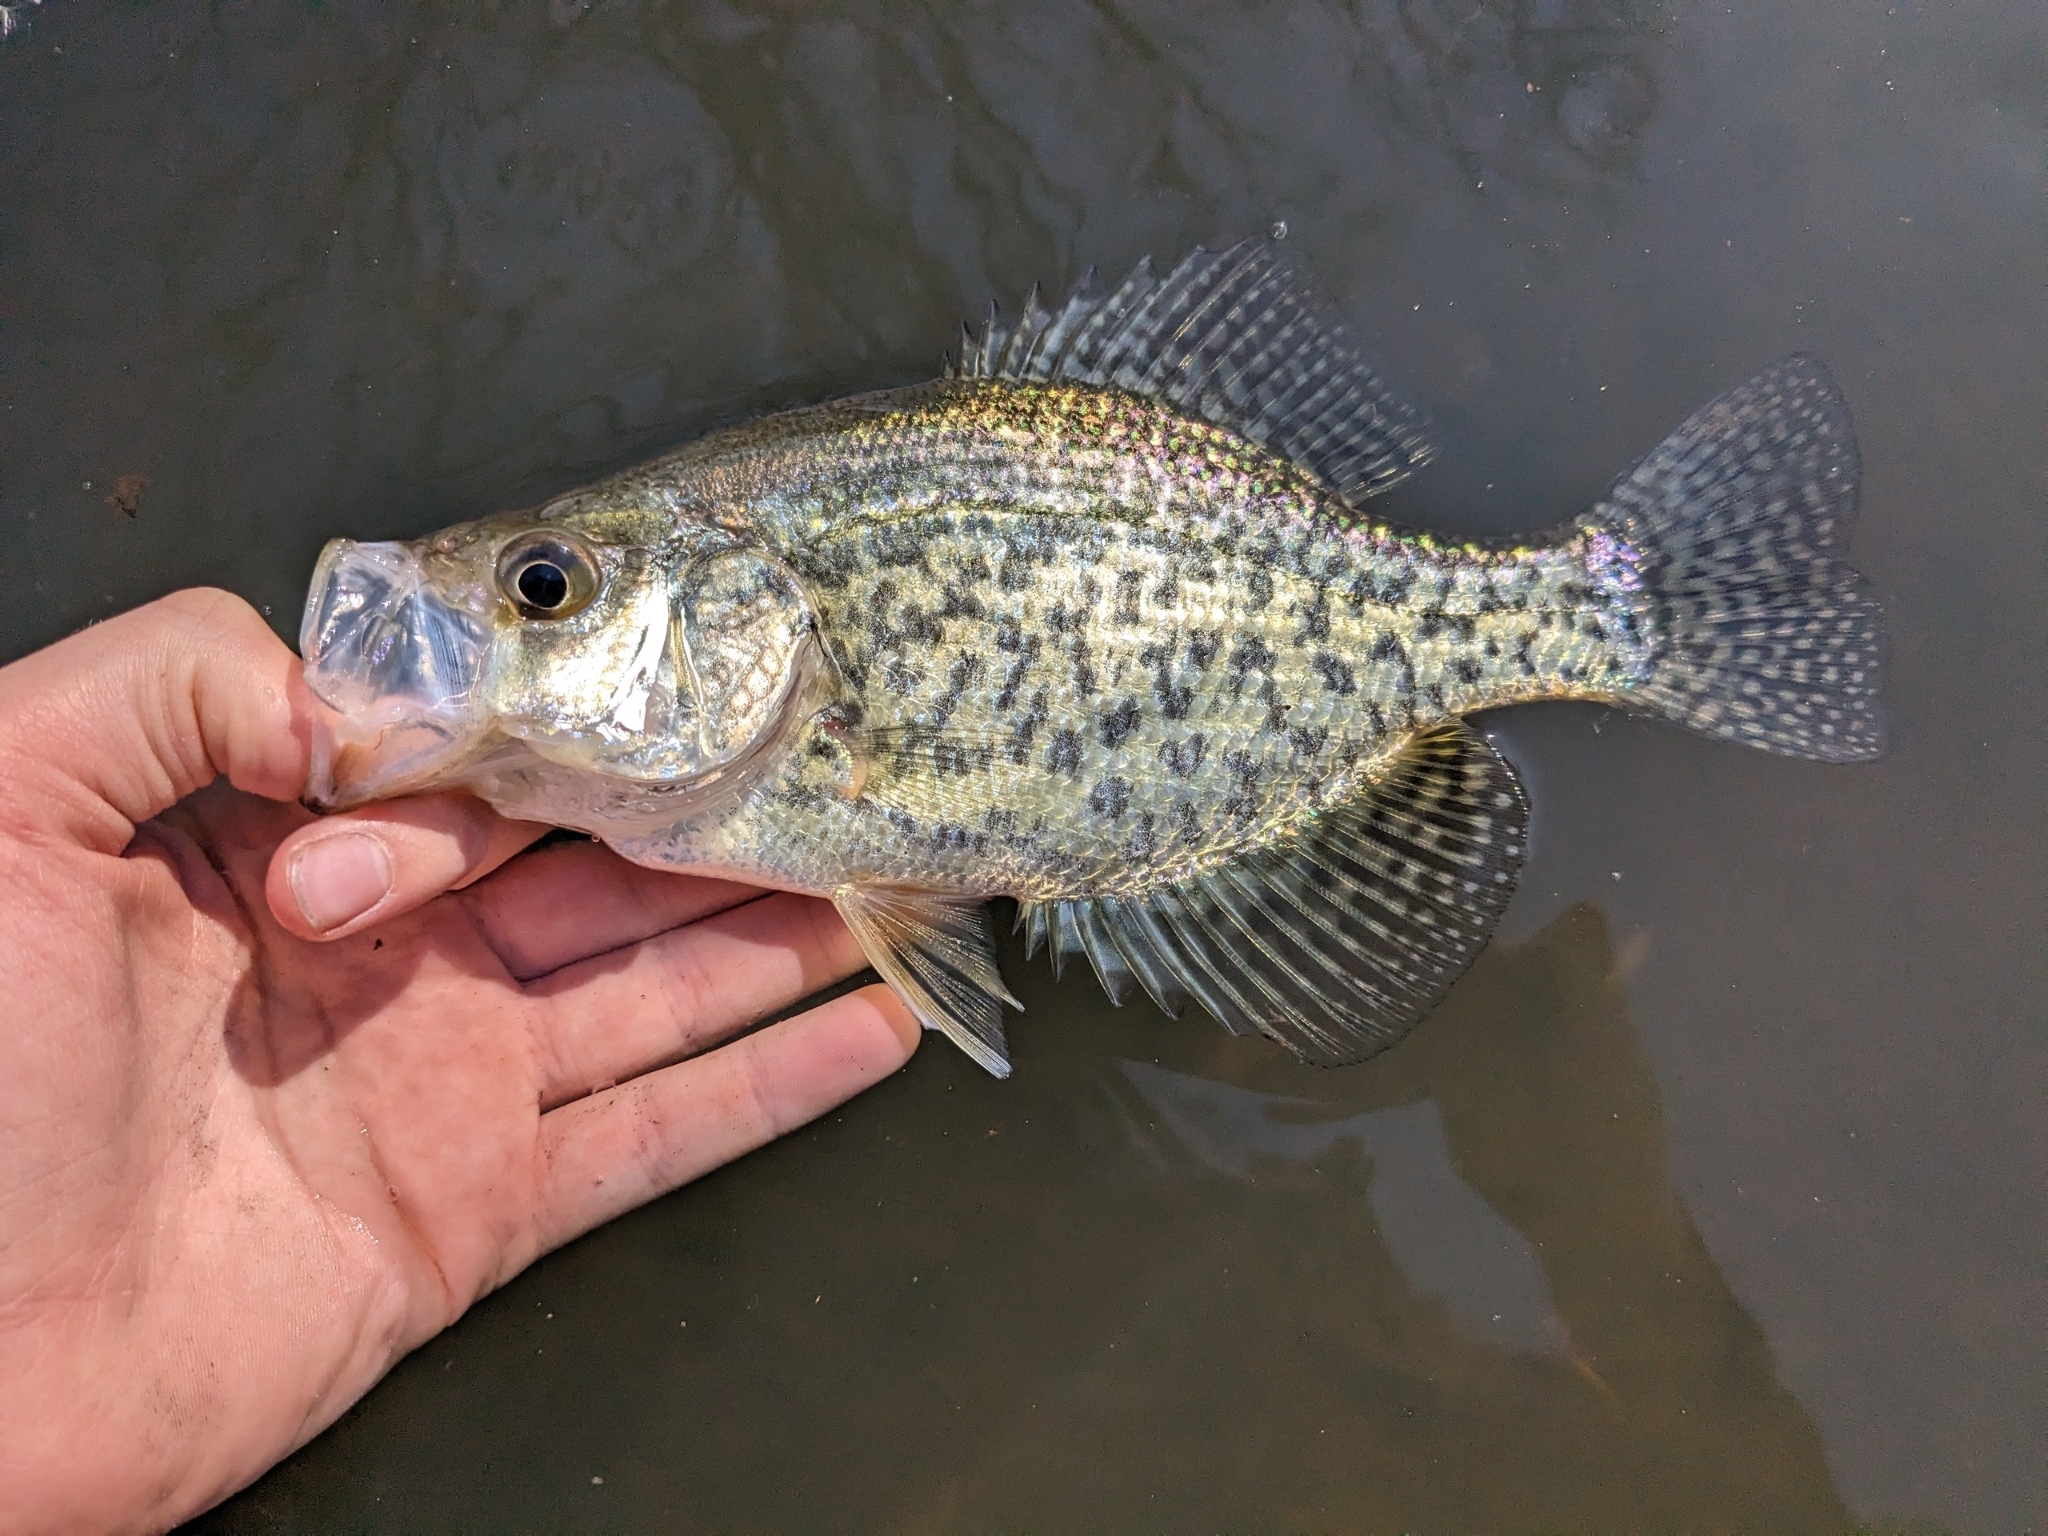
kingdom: Animalia
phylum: Chordata
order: Perciformes
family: Centrarchidae
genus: Pomoxis
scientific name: Pomoxis nigromaculatus
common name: Black crappie
